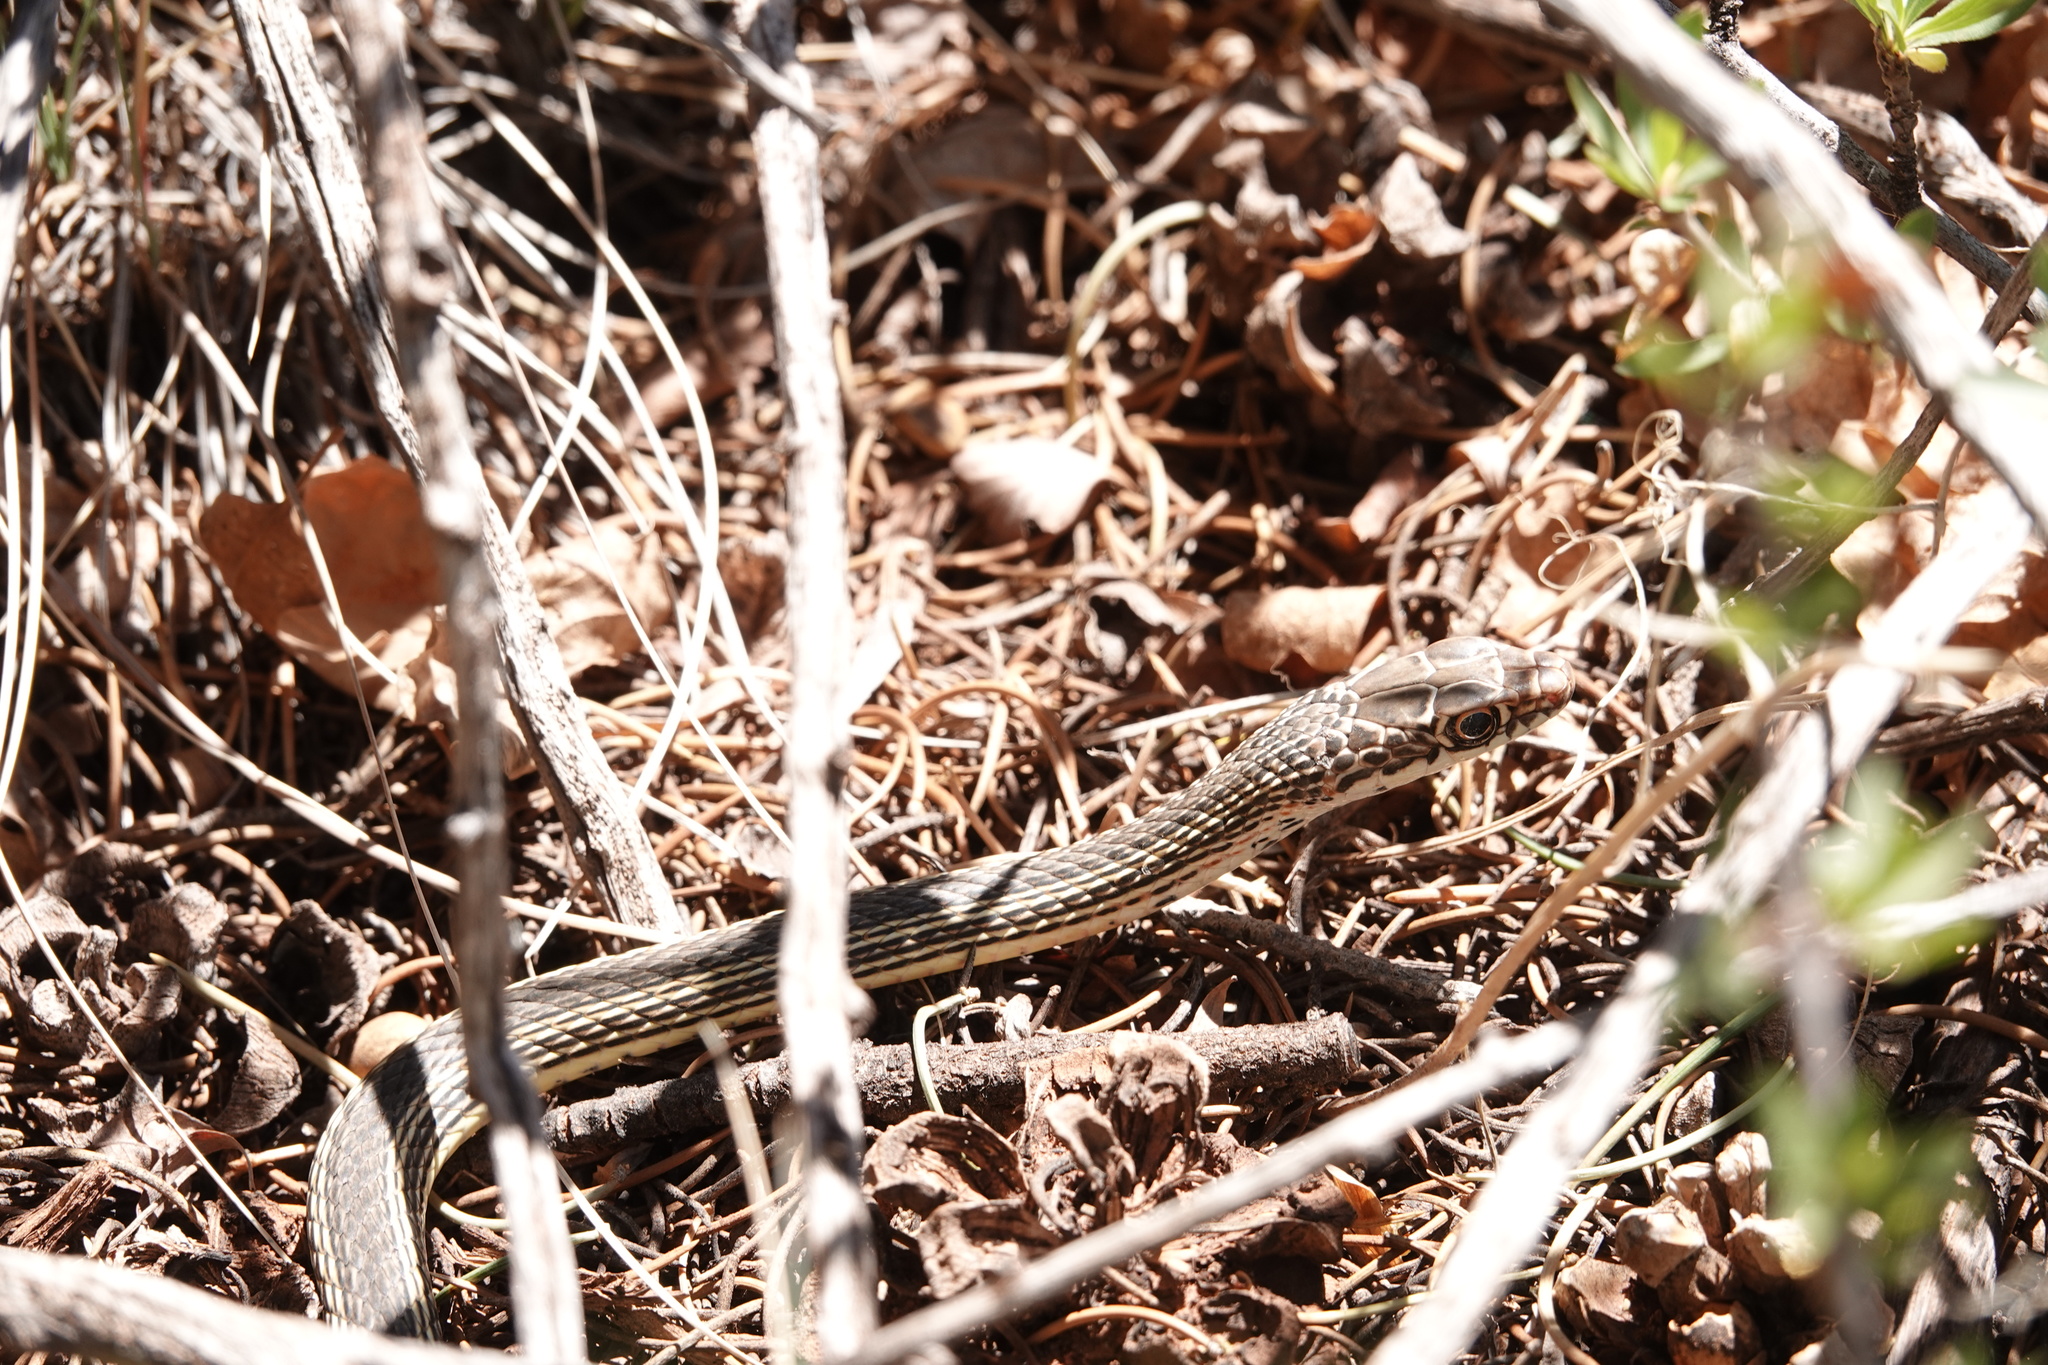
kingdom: Animalia
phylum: Chordata
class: Squamata
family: Colubridae
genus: Masticophis
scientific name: Masticophis taeniatus
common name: Striped whipsnake
